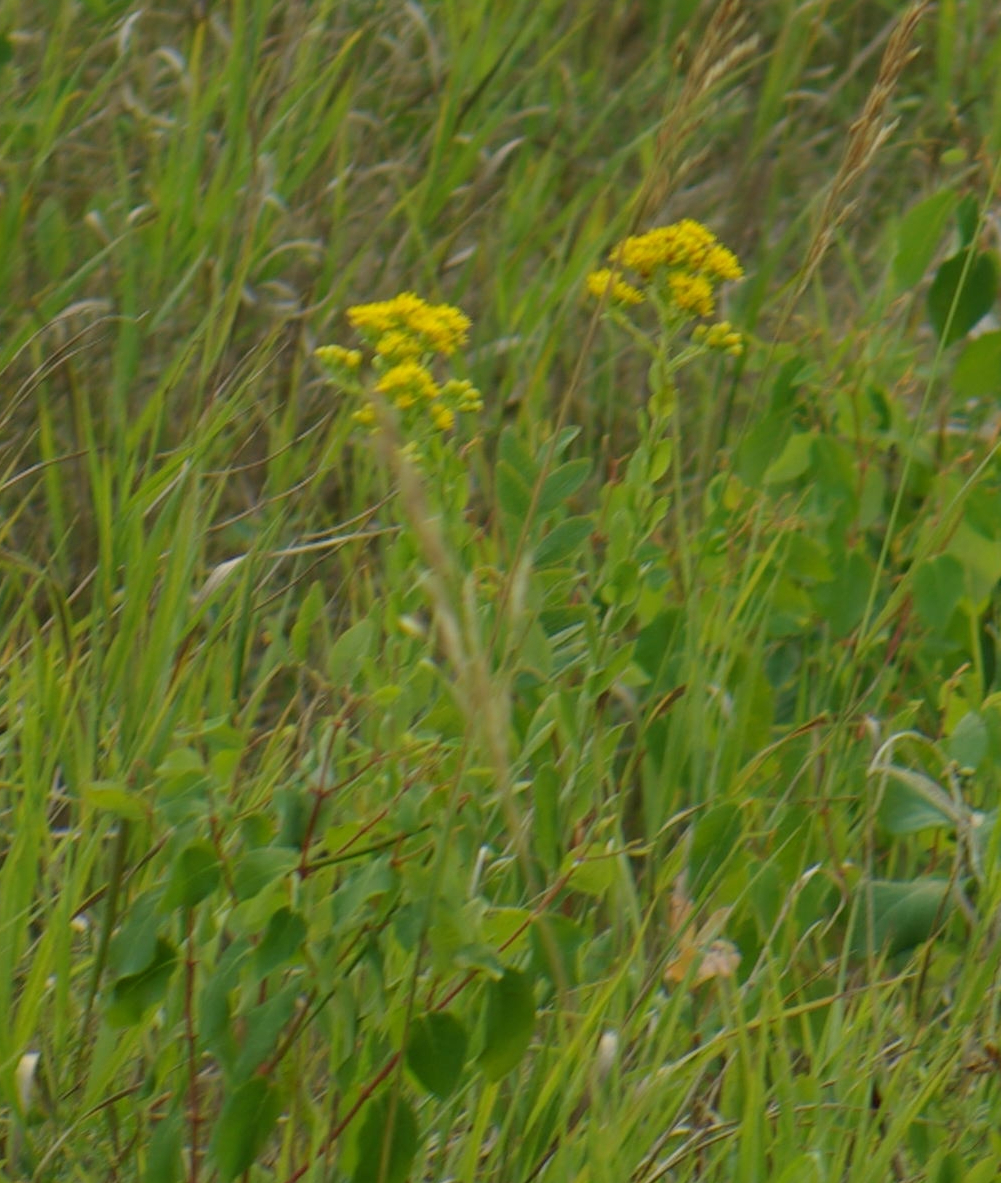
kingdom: Plantae
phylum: Tracheophyta
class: Magnoliopsida
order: Asterales
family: Asteraceae
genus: Solidago
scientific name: Solidago rigida
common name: Rigid goldenrod
